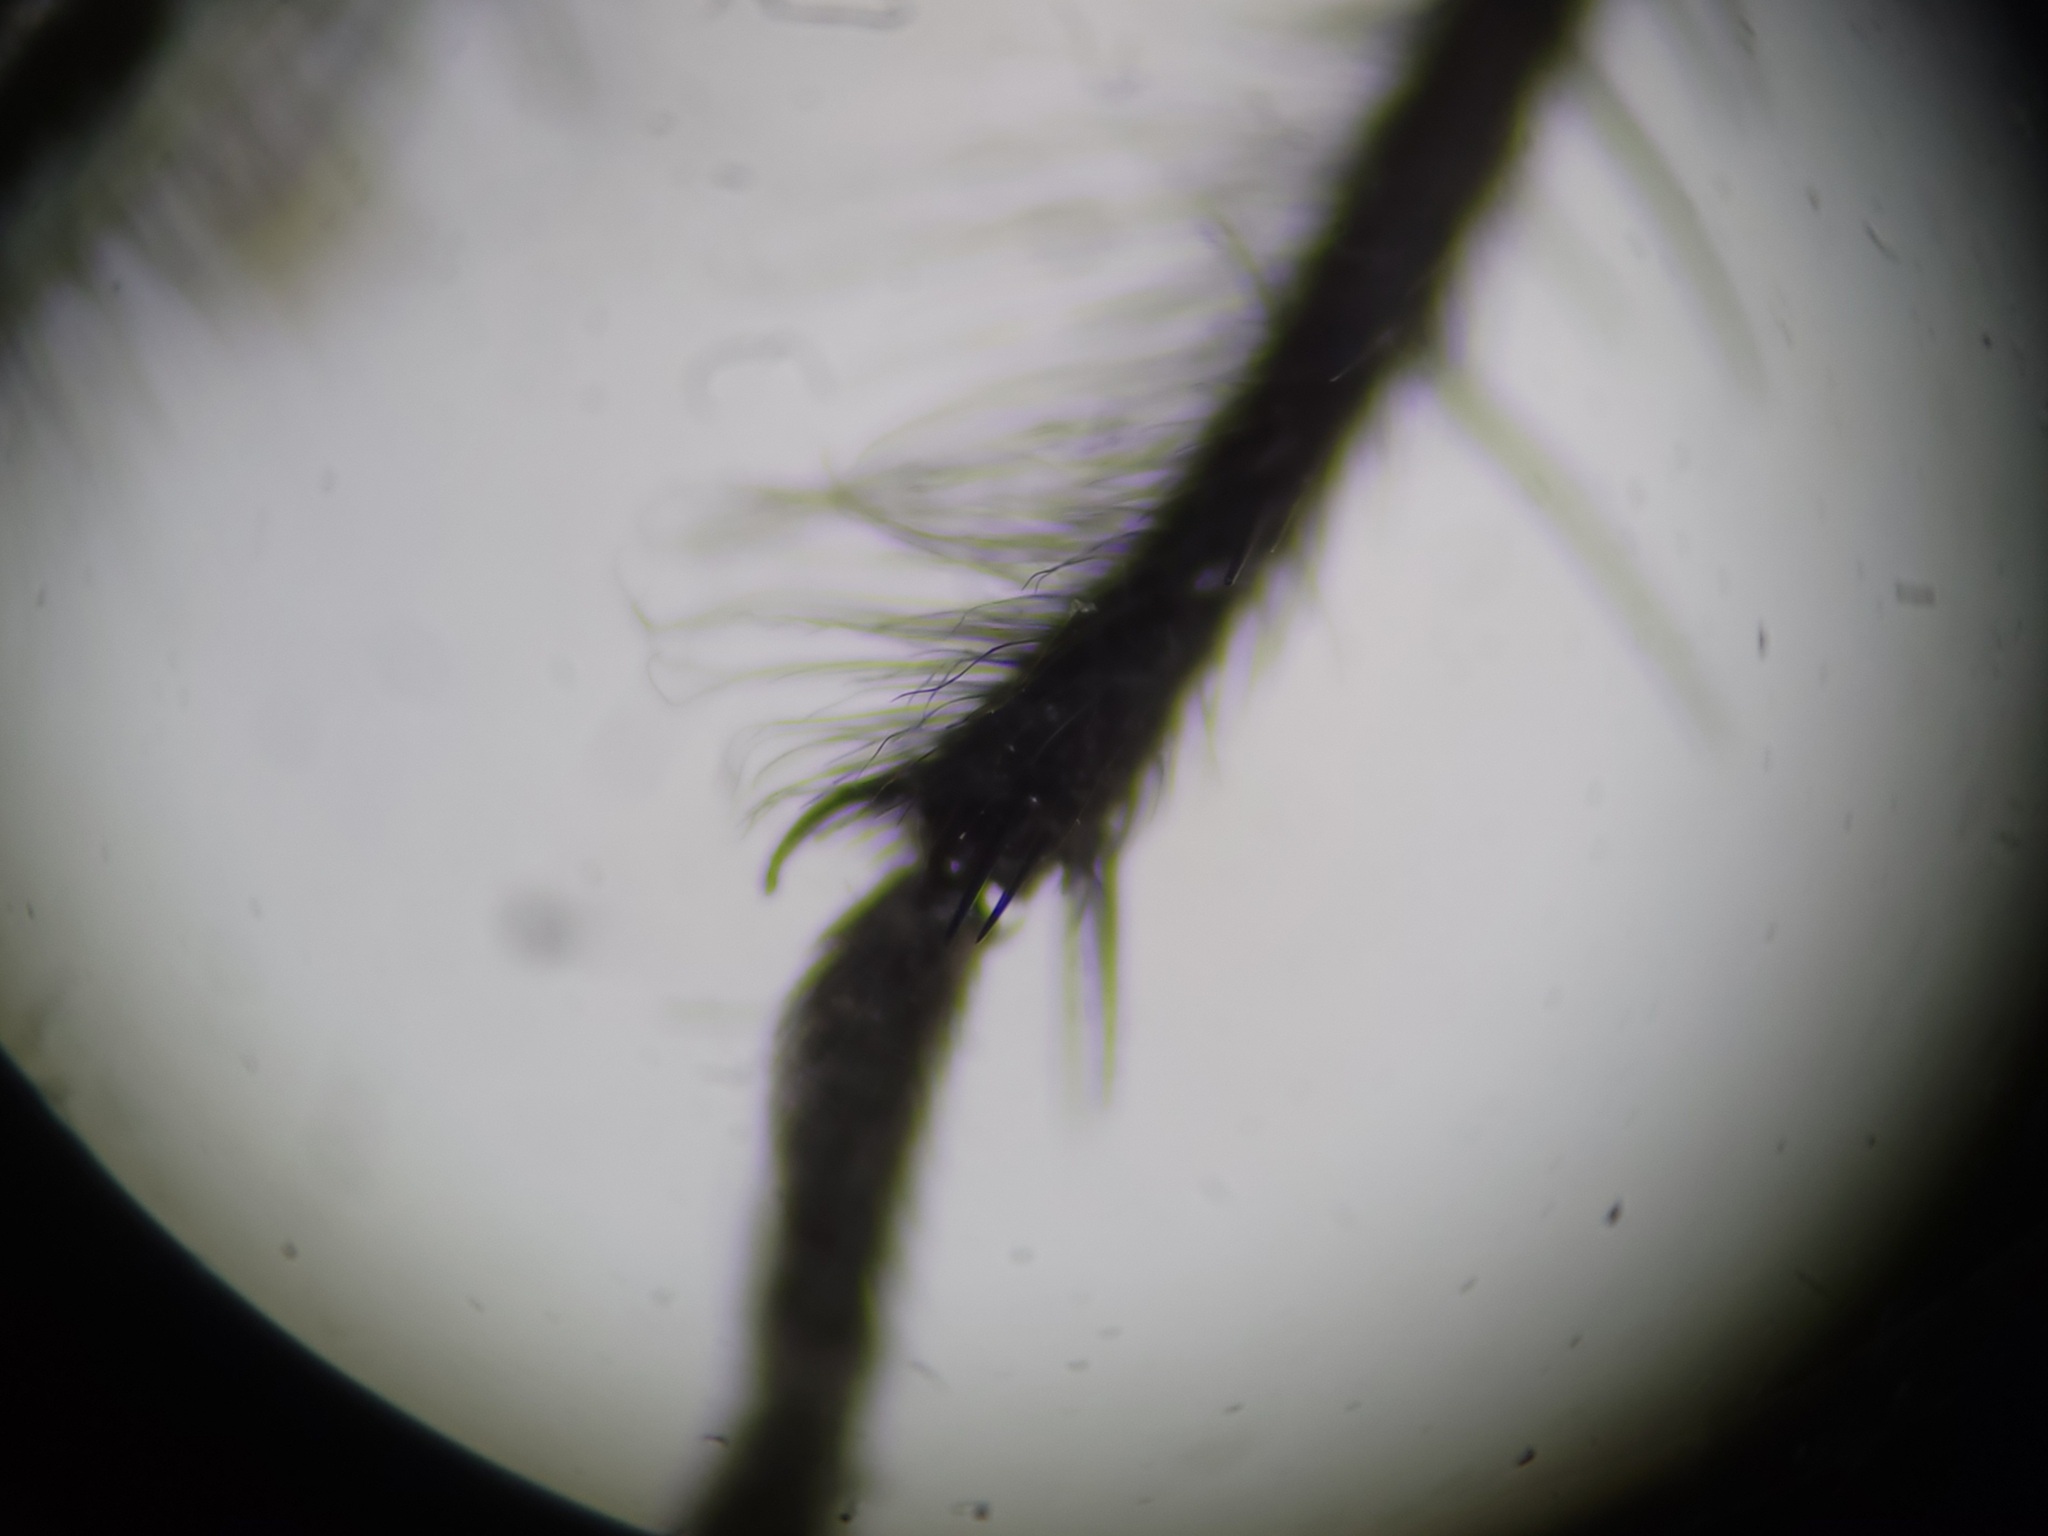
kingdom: Animalia
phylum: Arthropoda
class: Insecta
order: Diptera
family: Sarcophagidae
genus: Sarcophaga
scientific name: Sarcophaga subvicina
